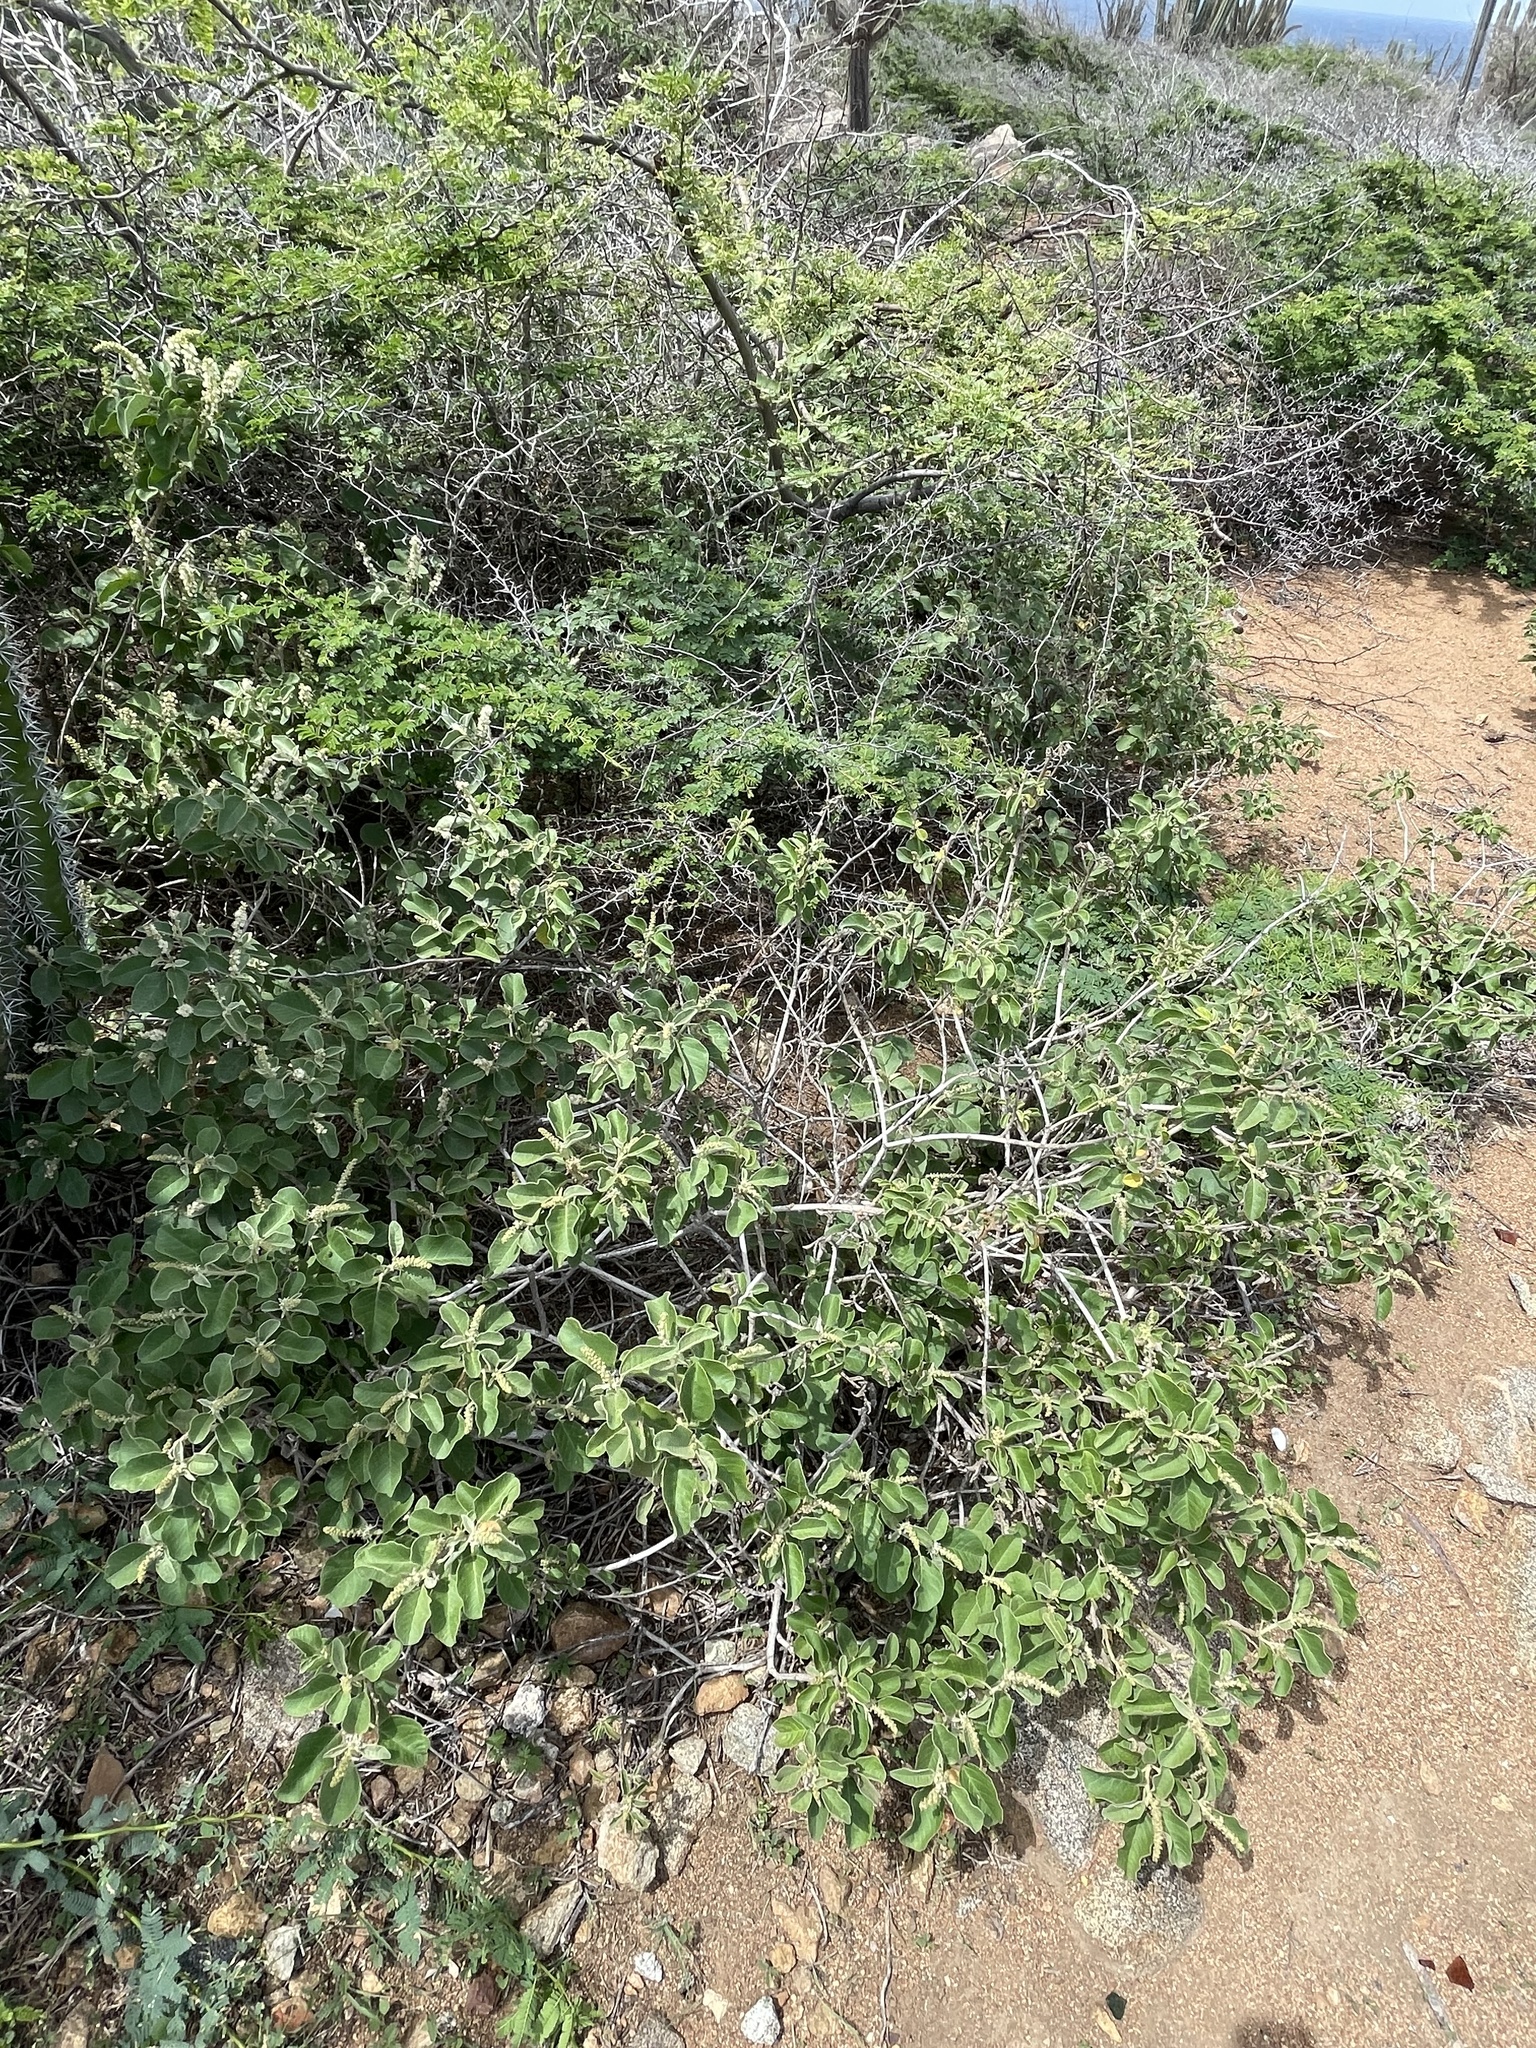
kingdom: Plantae
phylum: Tracheophyta
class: Magnoliopsida
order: Malpighiales
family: Euphorbiaceae
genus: Croton
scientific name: Croton conduplicatus
